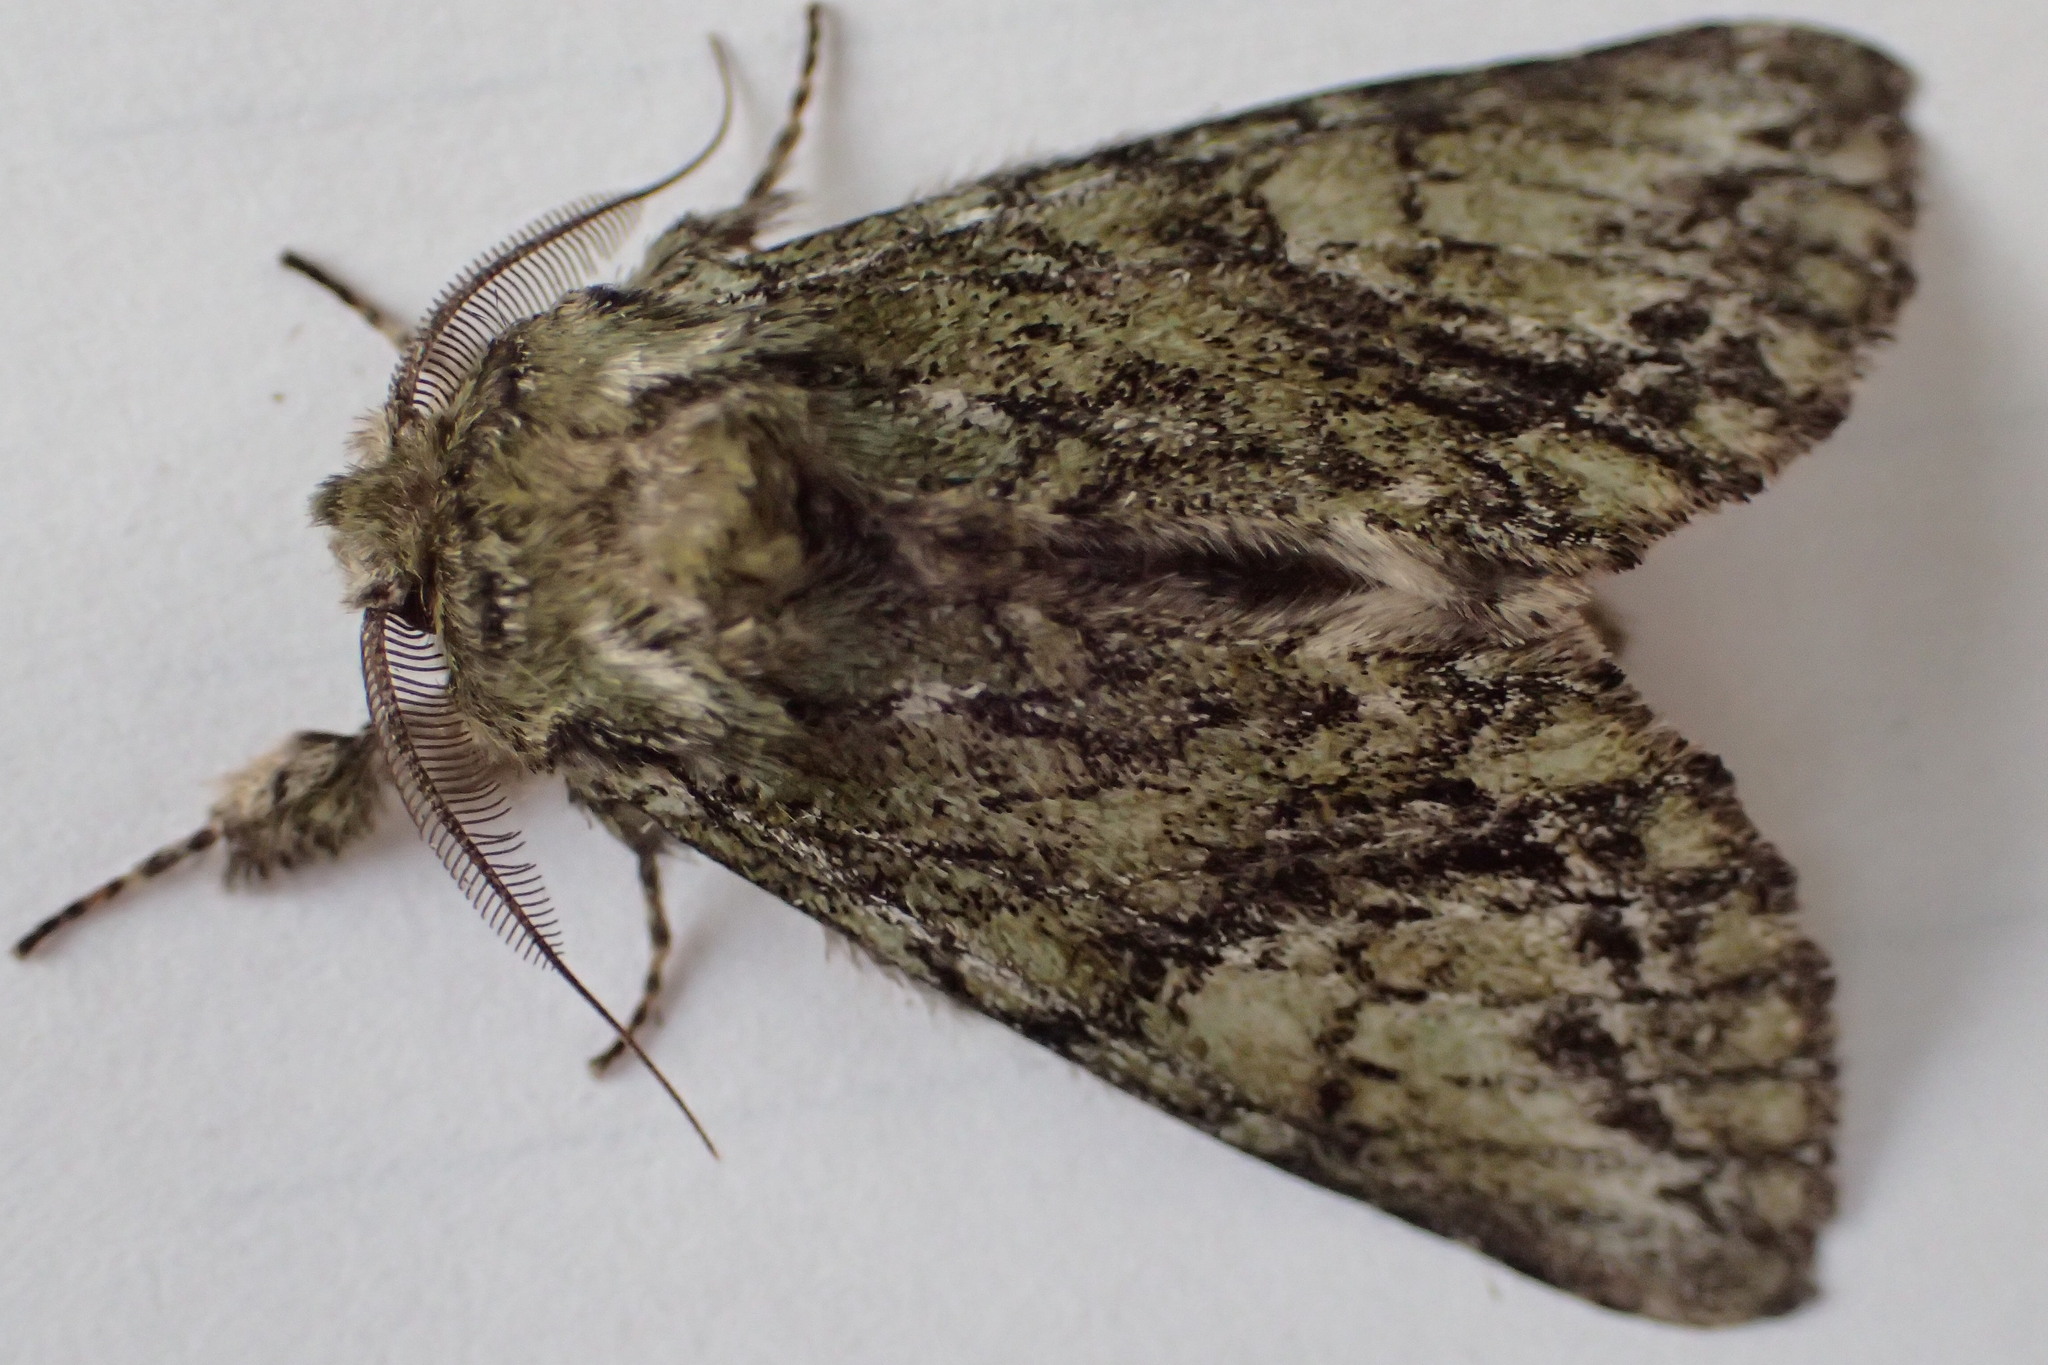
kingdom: Animalia
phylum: Arthropoda
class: Insecta
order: Lepidoptera
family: Notodontidae
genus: Heterocampa
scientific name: Heterocampa
